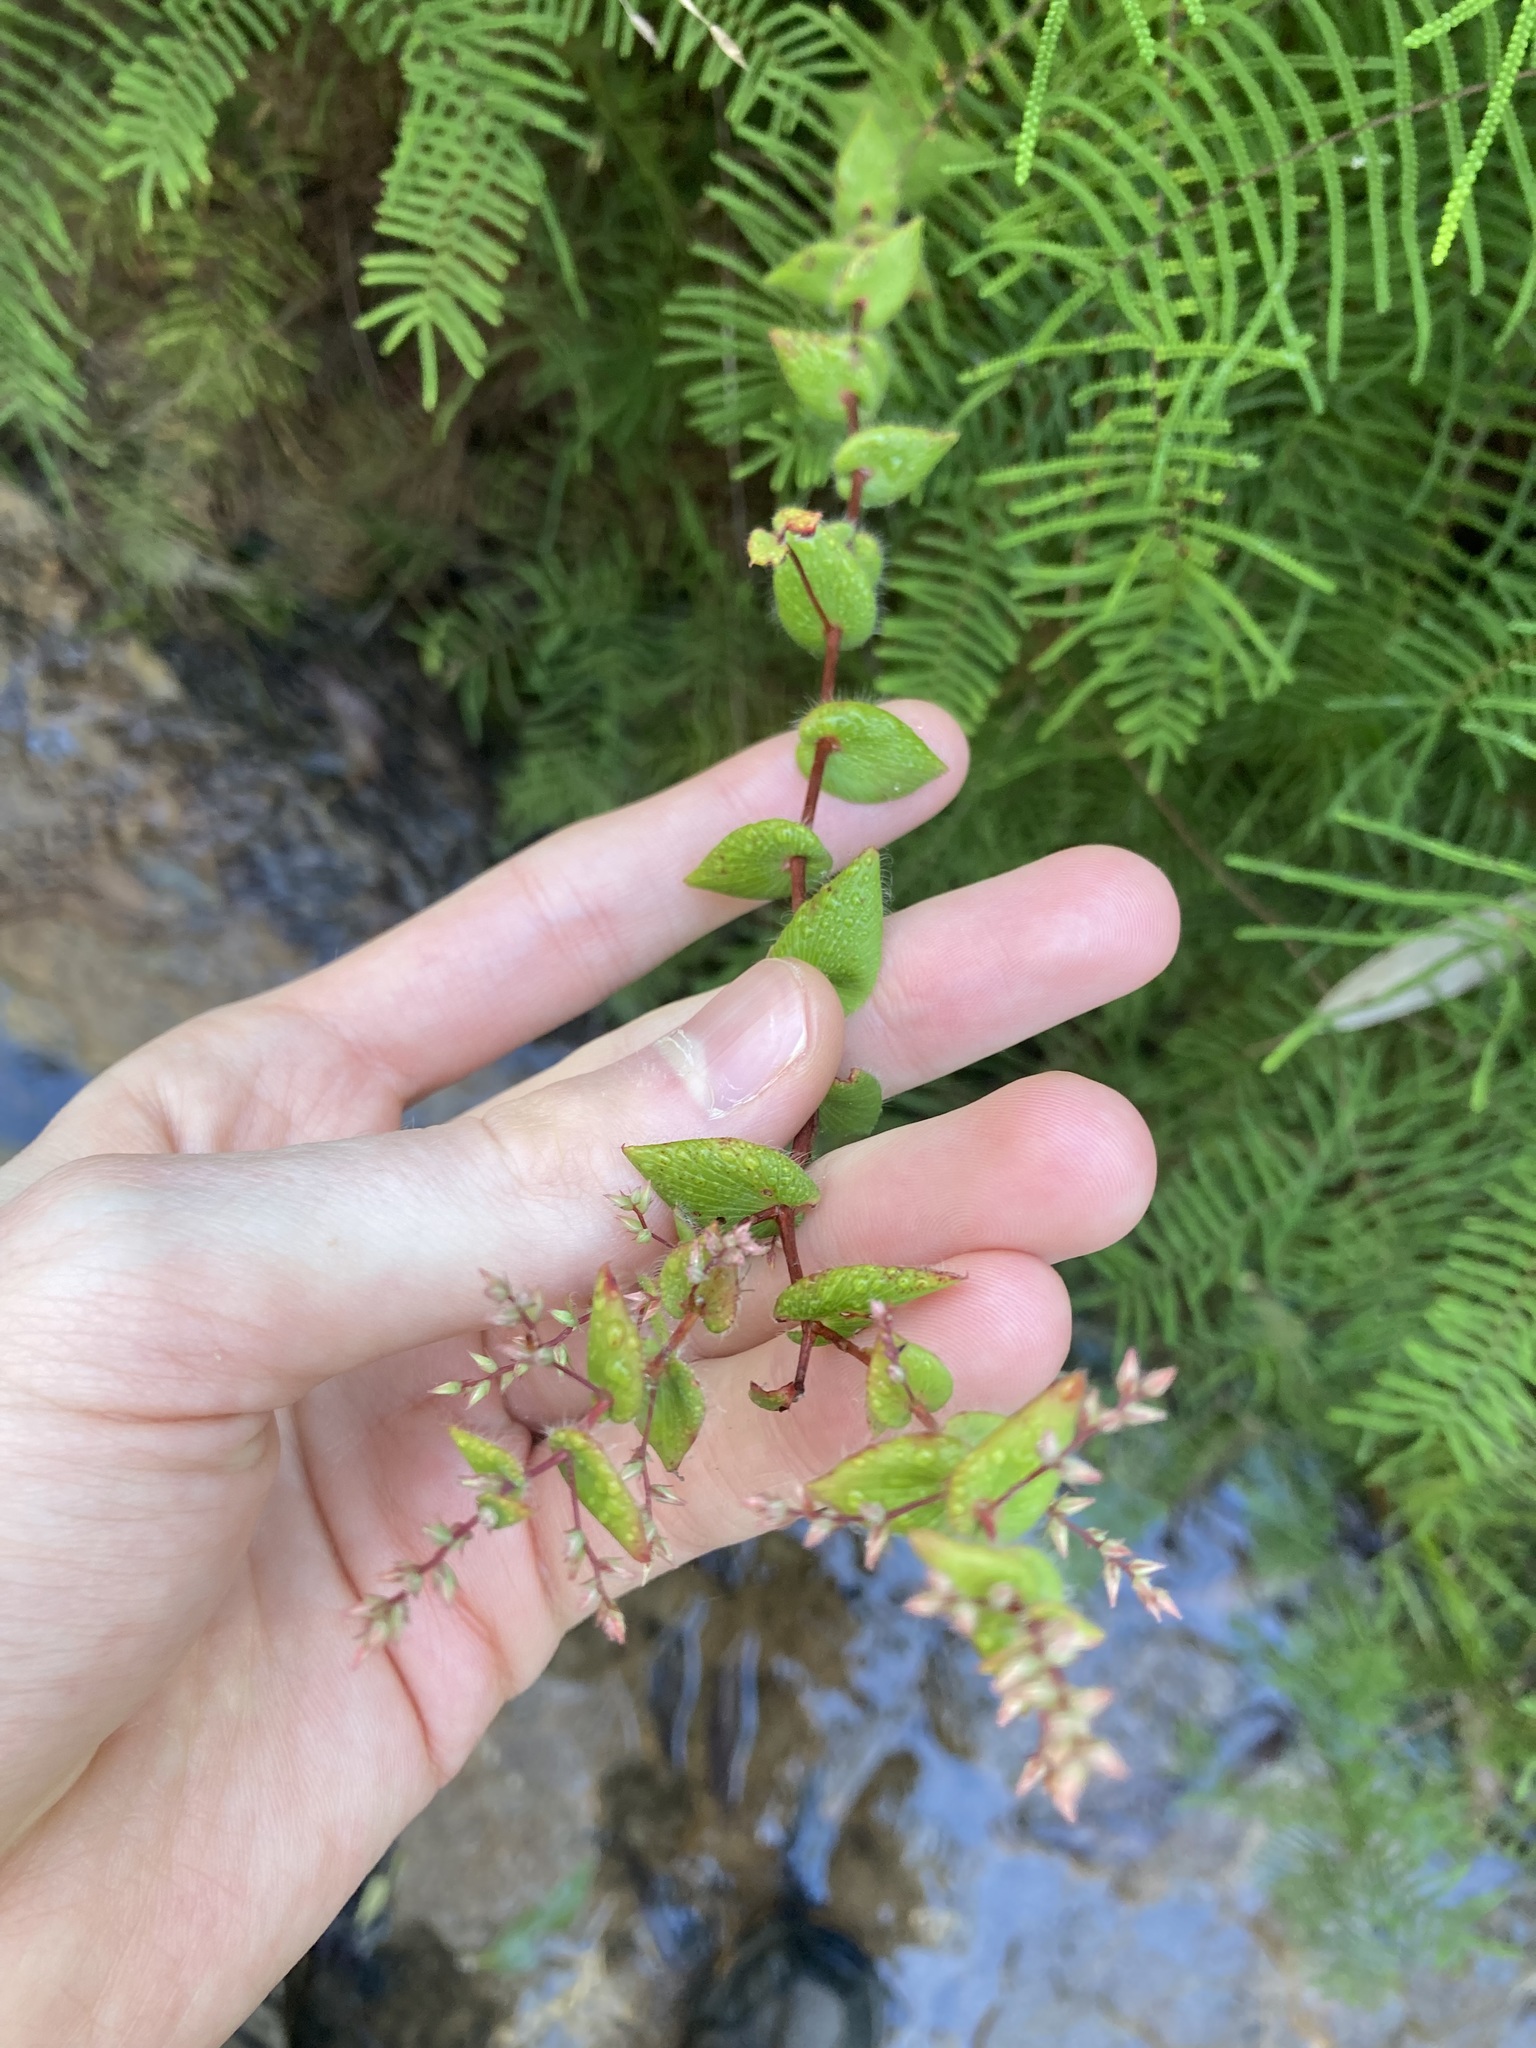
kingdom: Plantae
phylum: Tracheophyta
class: Magnoliopsida
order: Ericales
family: Ericaceae
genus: Leucopogon
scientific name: Leucopogon amplexicaulis
